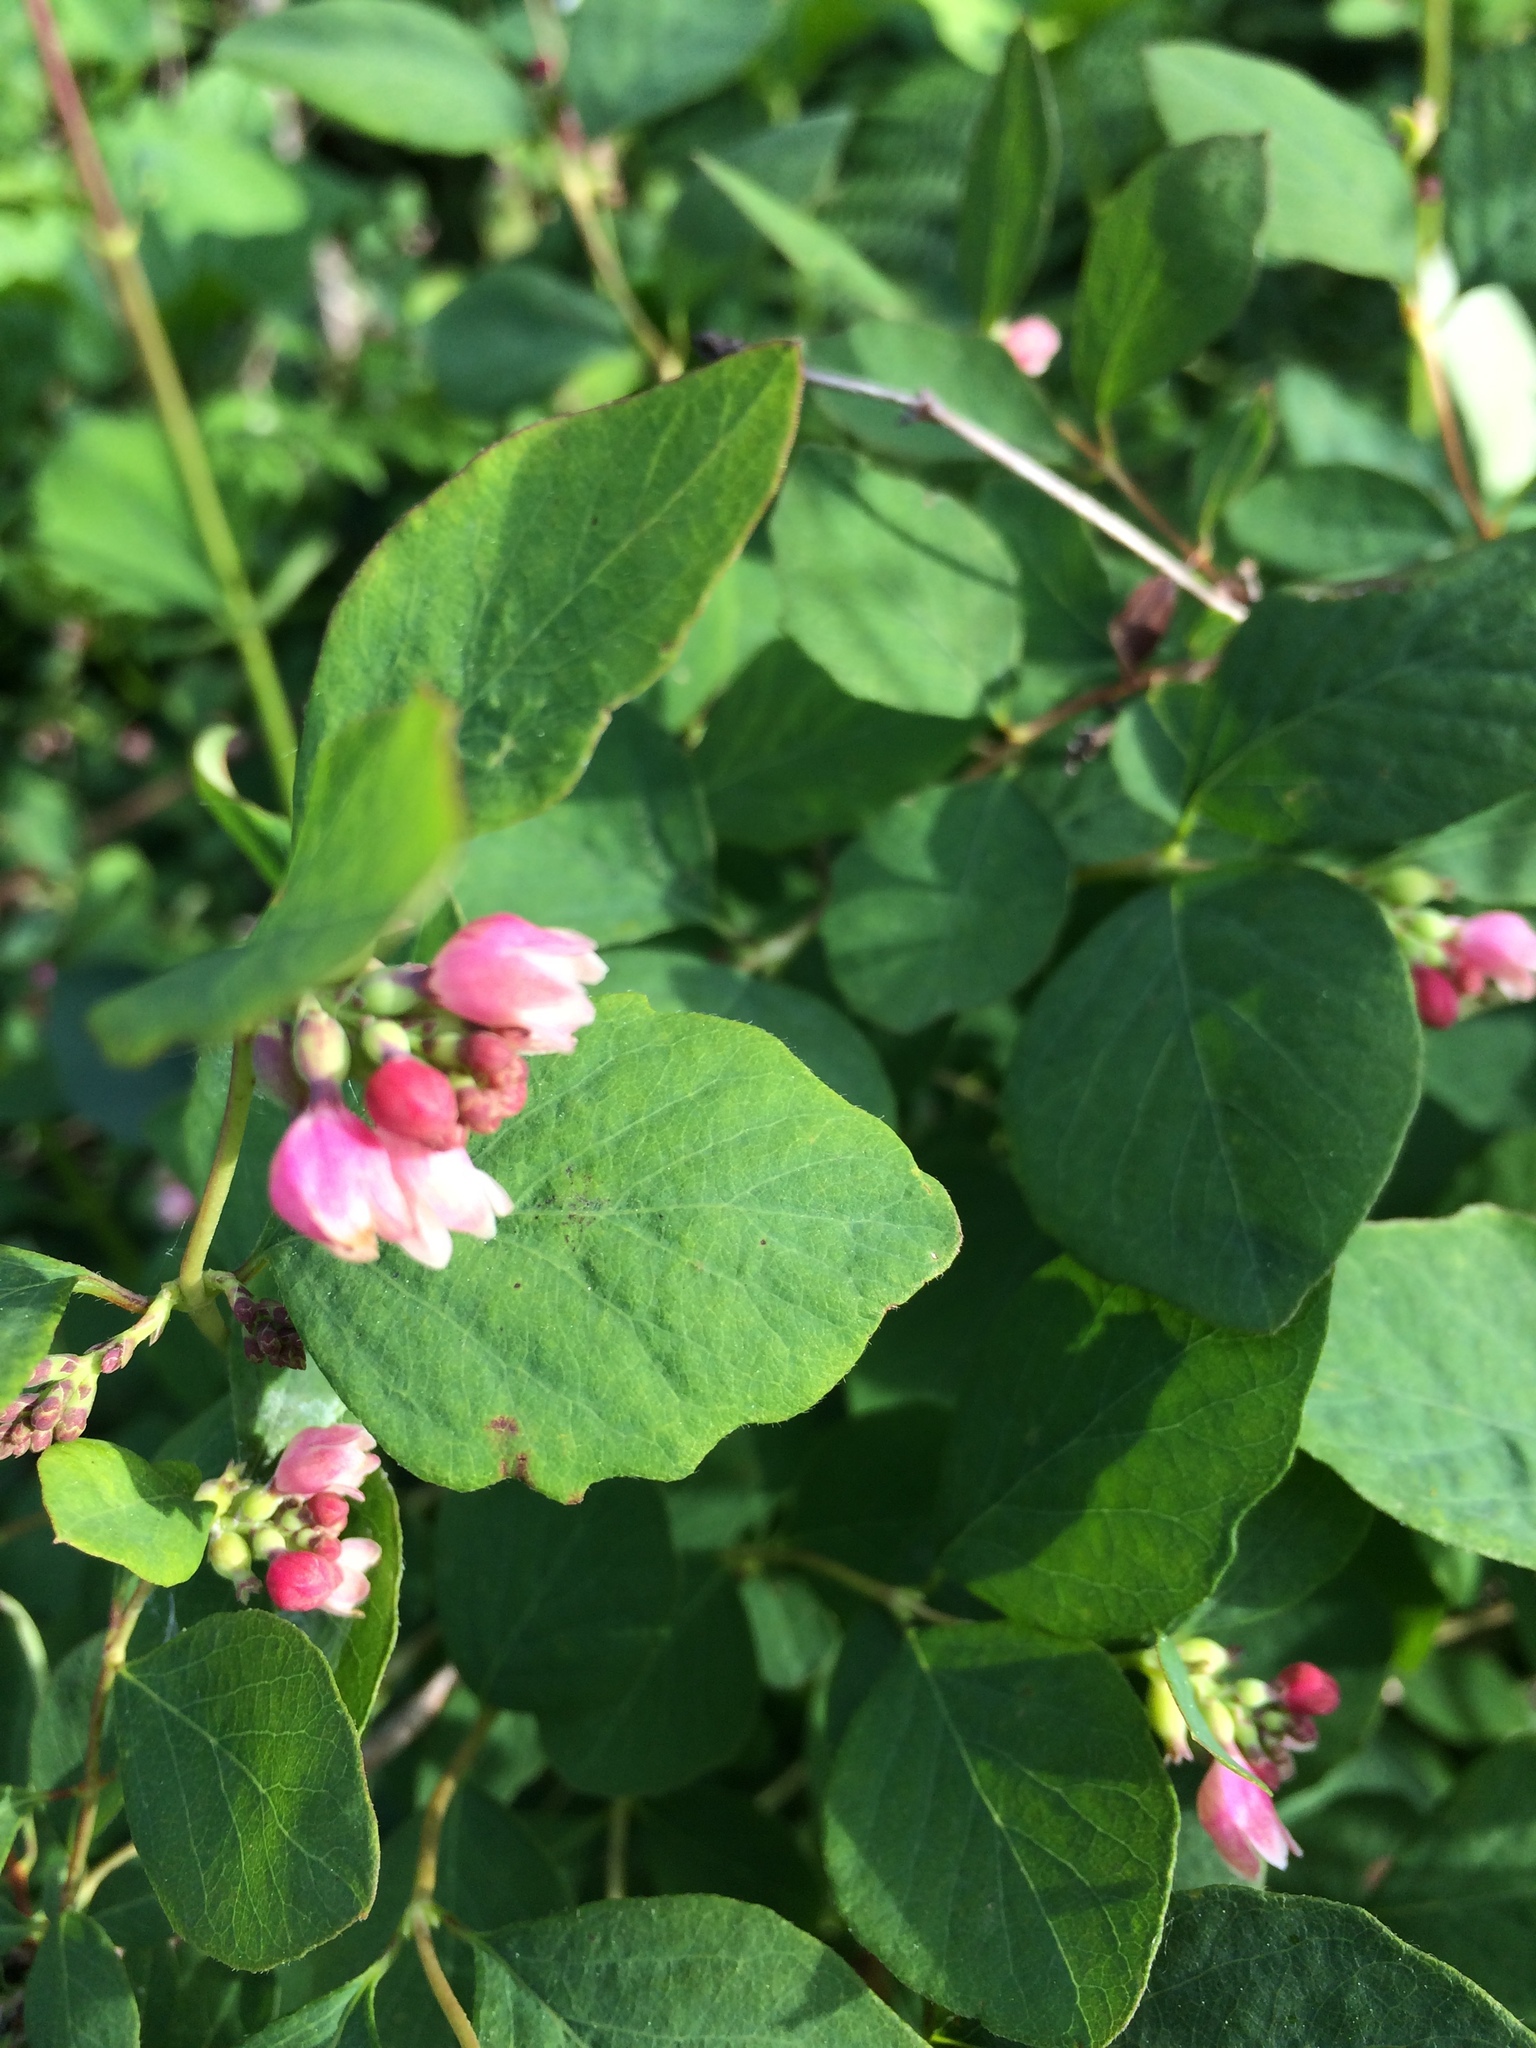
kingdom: Plantae
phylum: Tracheophyta
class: Magnoliopsida
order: Dipsacales
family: Caprifoliaceae
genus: Symphoricarpos
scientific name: Symphoricarpos albus
